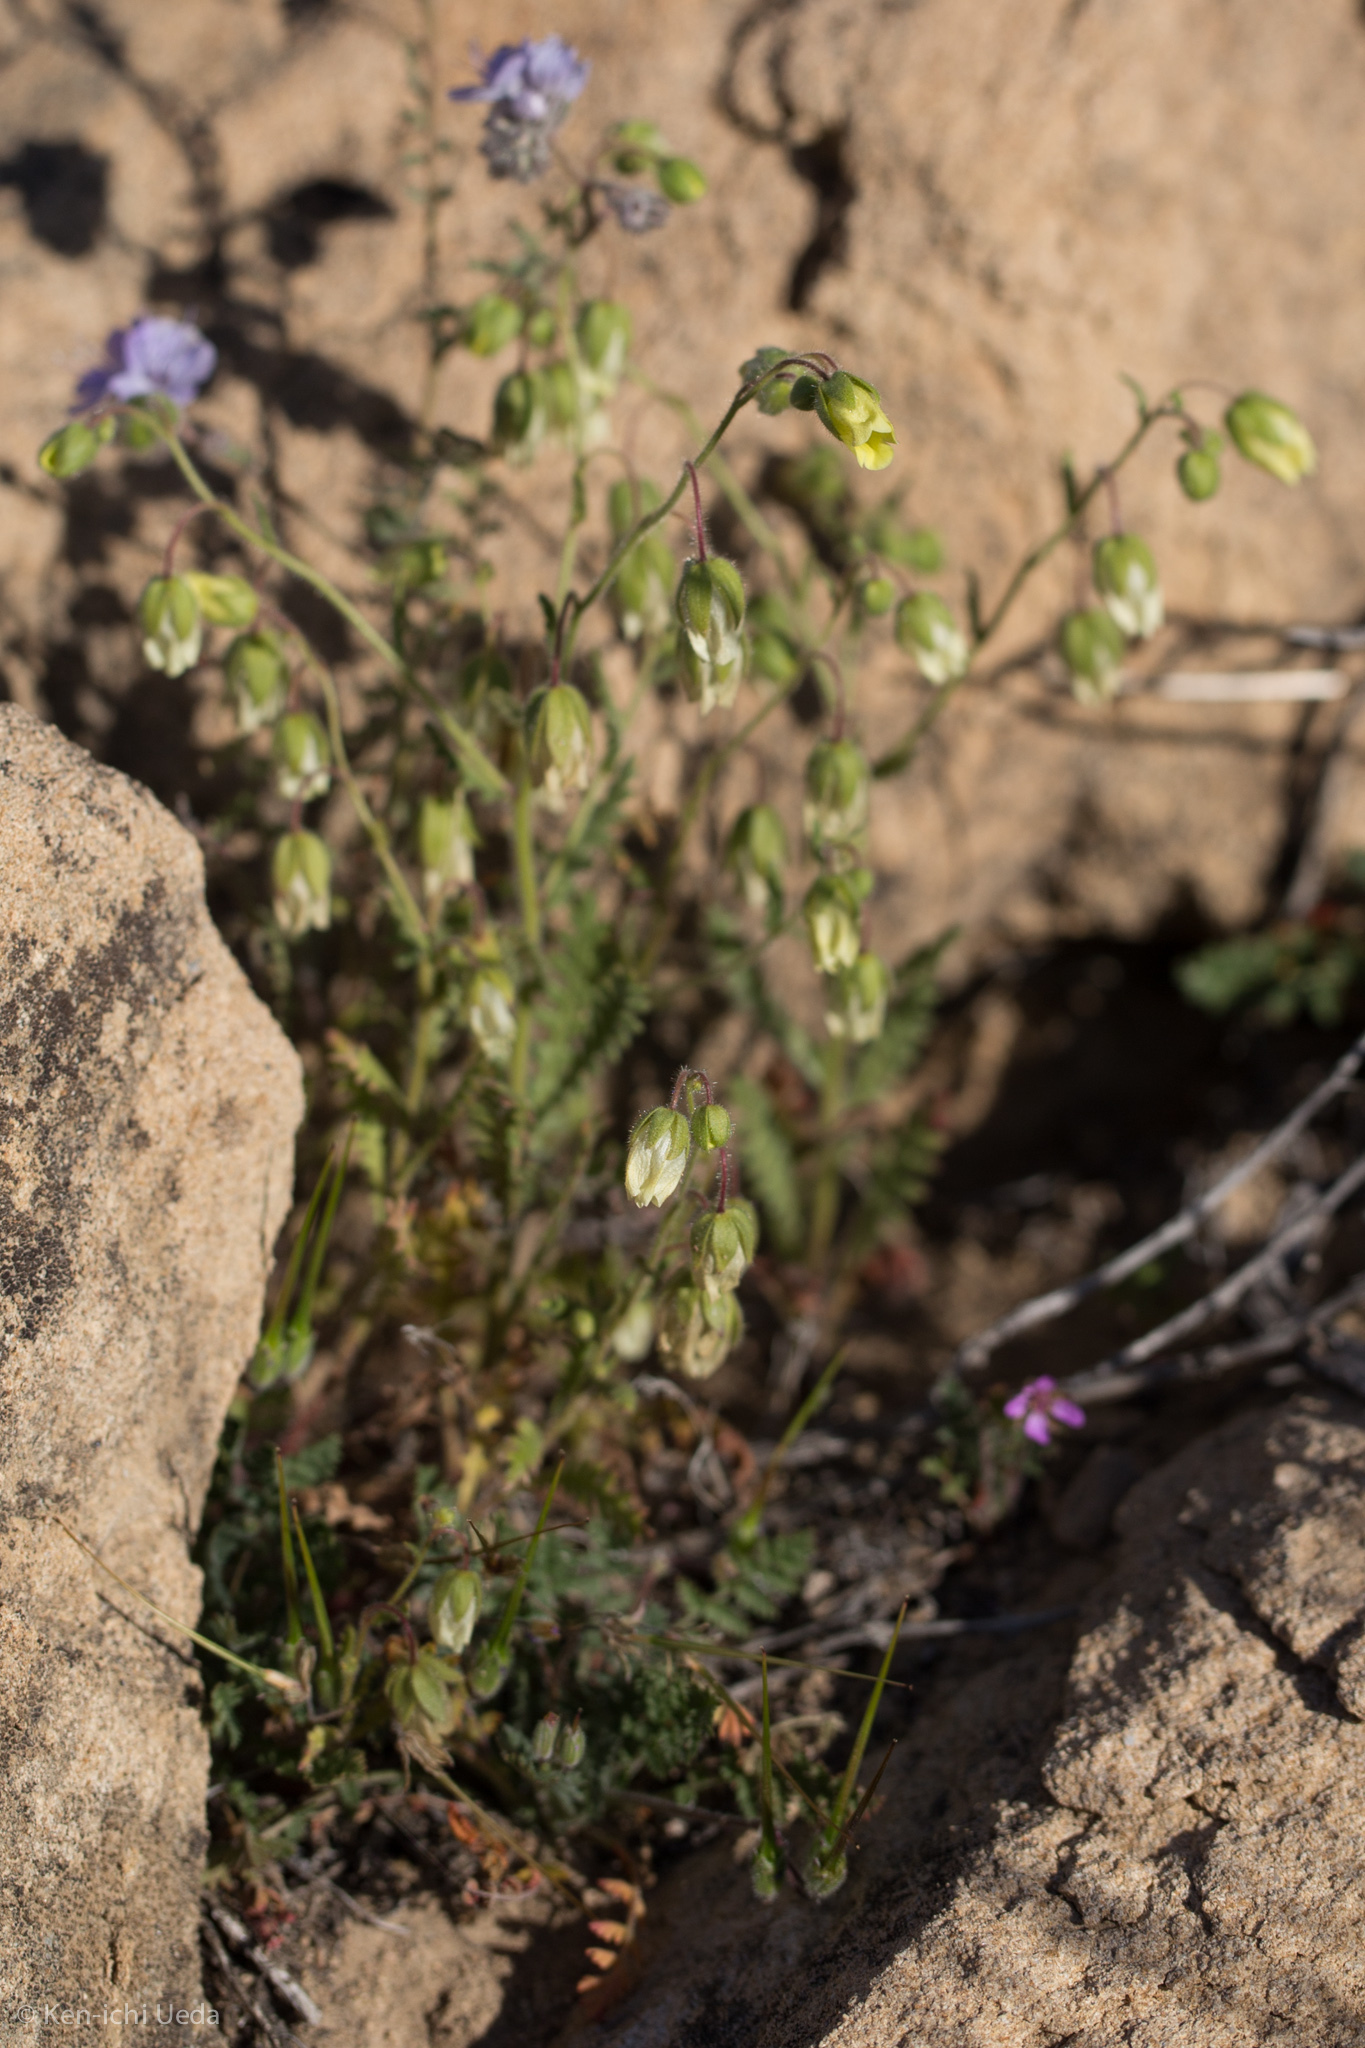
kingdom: Plantae
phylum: Tracheophyta
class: Magnoliopsida
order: Boraginales
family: Hydrophyllaceae
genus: Emmenanthe
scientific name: Emmenanthe penduliflora
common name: Whispering-bells
